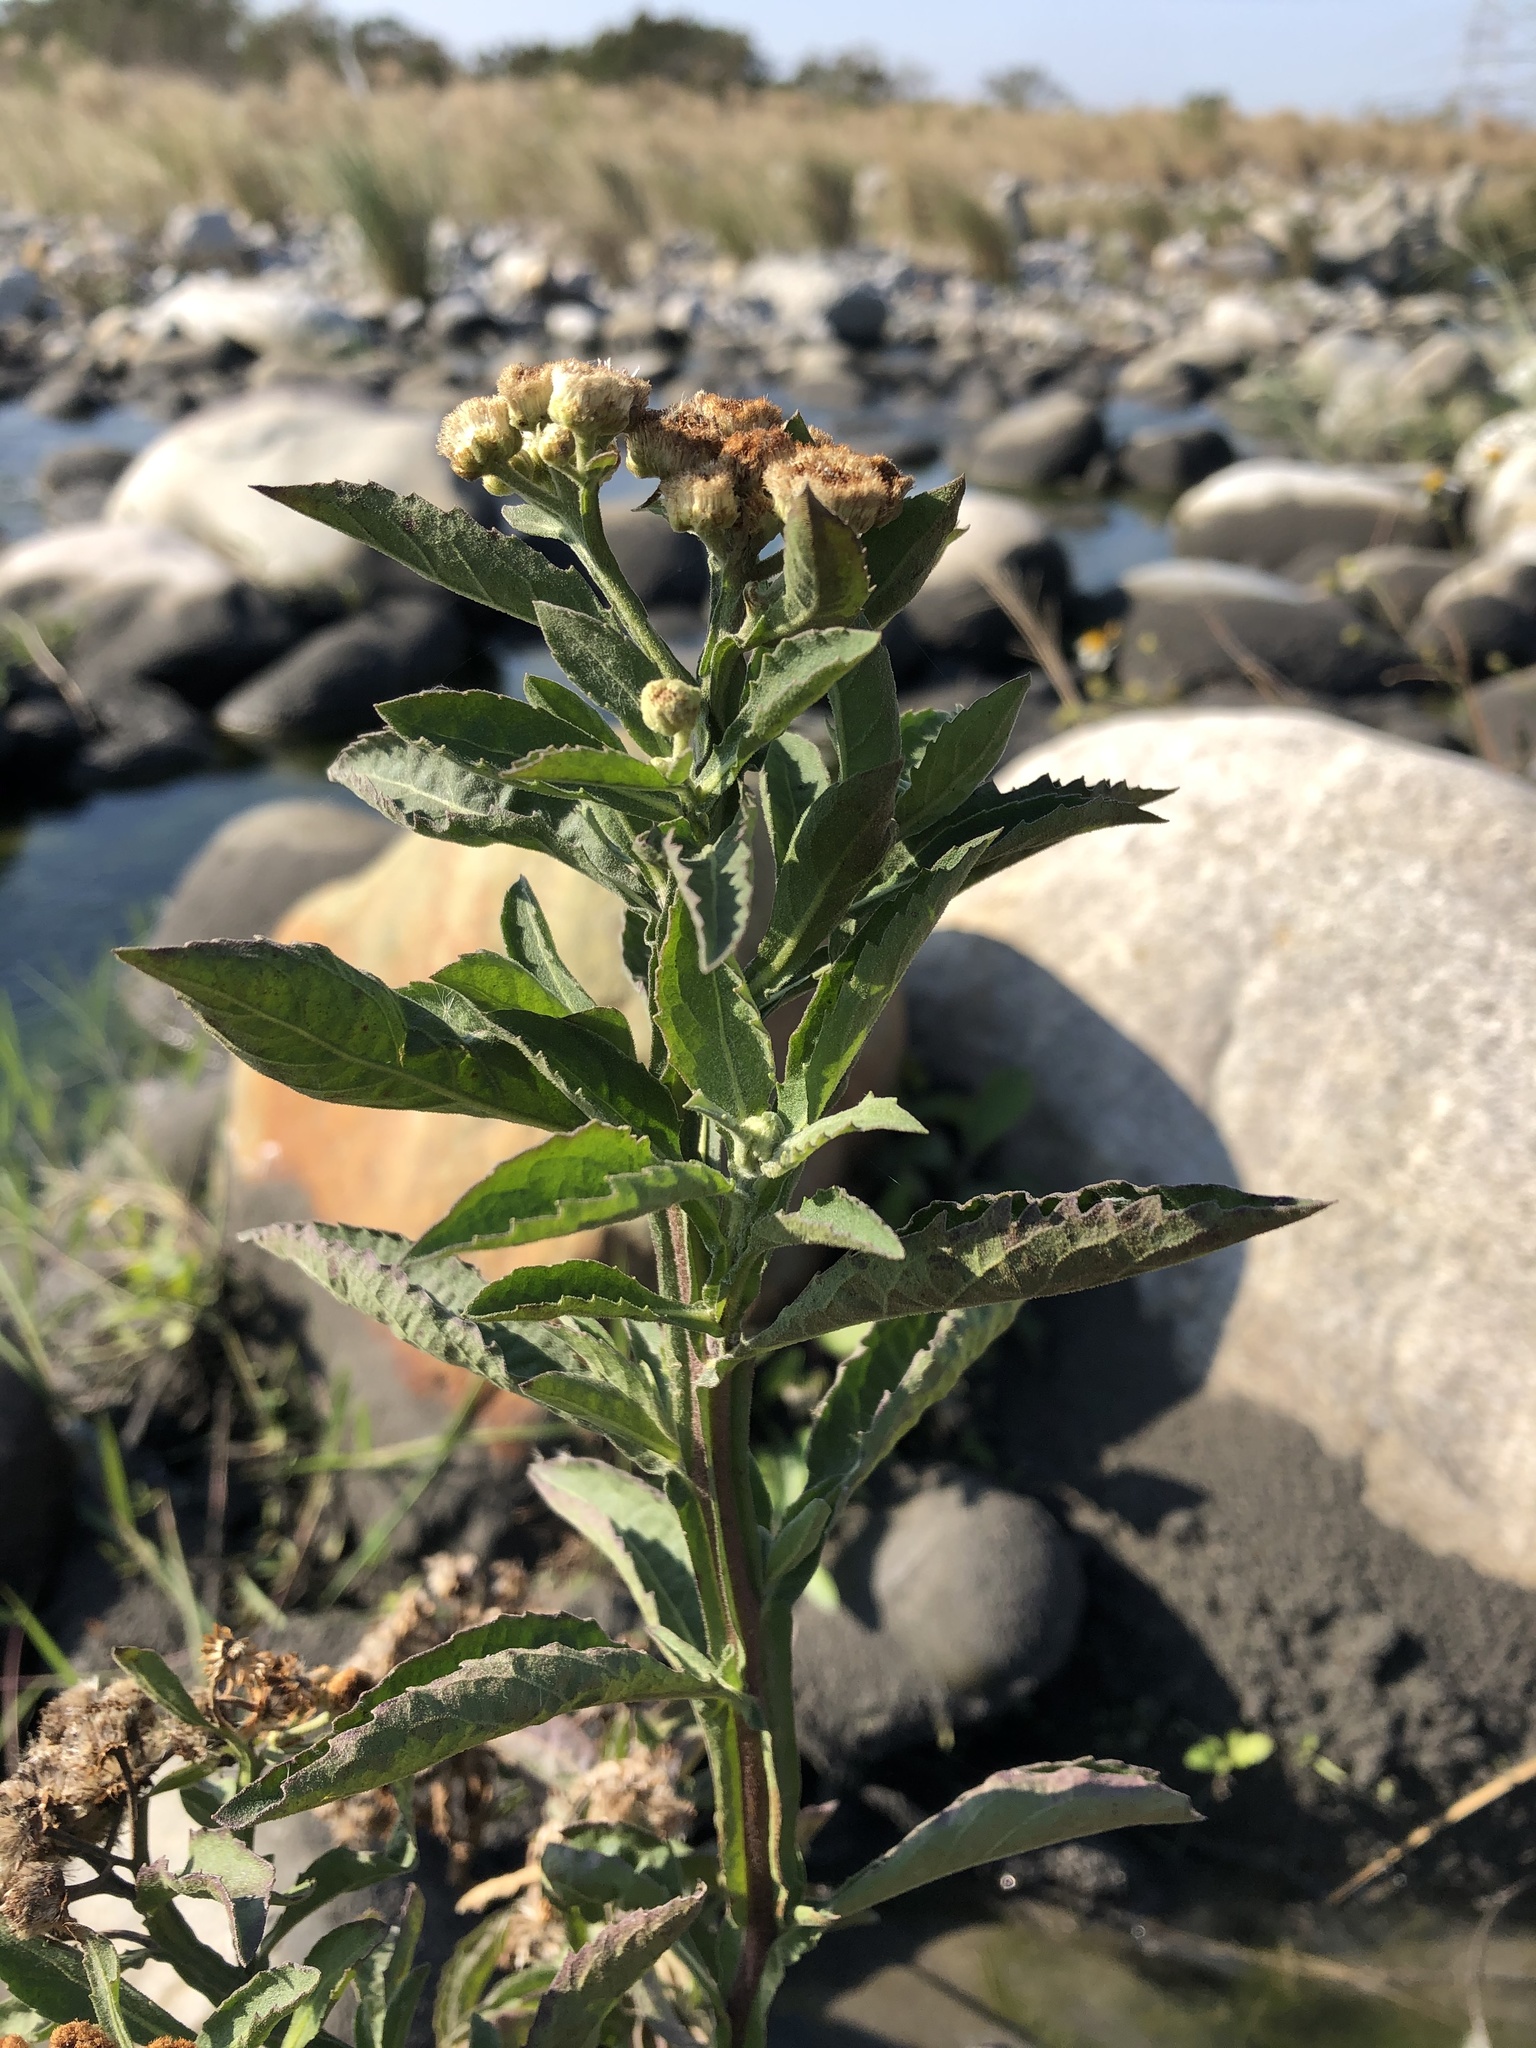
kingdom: Plantae
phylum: Tracheophyta
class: Magnoliopsida
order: Asterales
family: Asteraceae
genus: Pluchea
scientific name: Pluchea sagittalis
